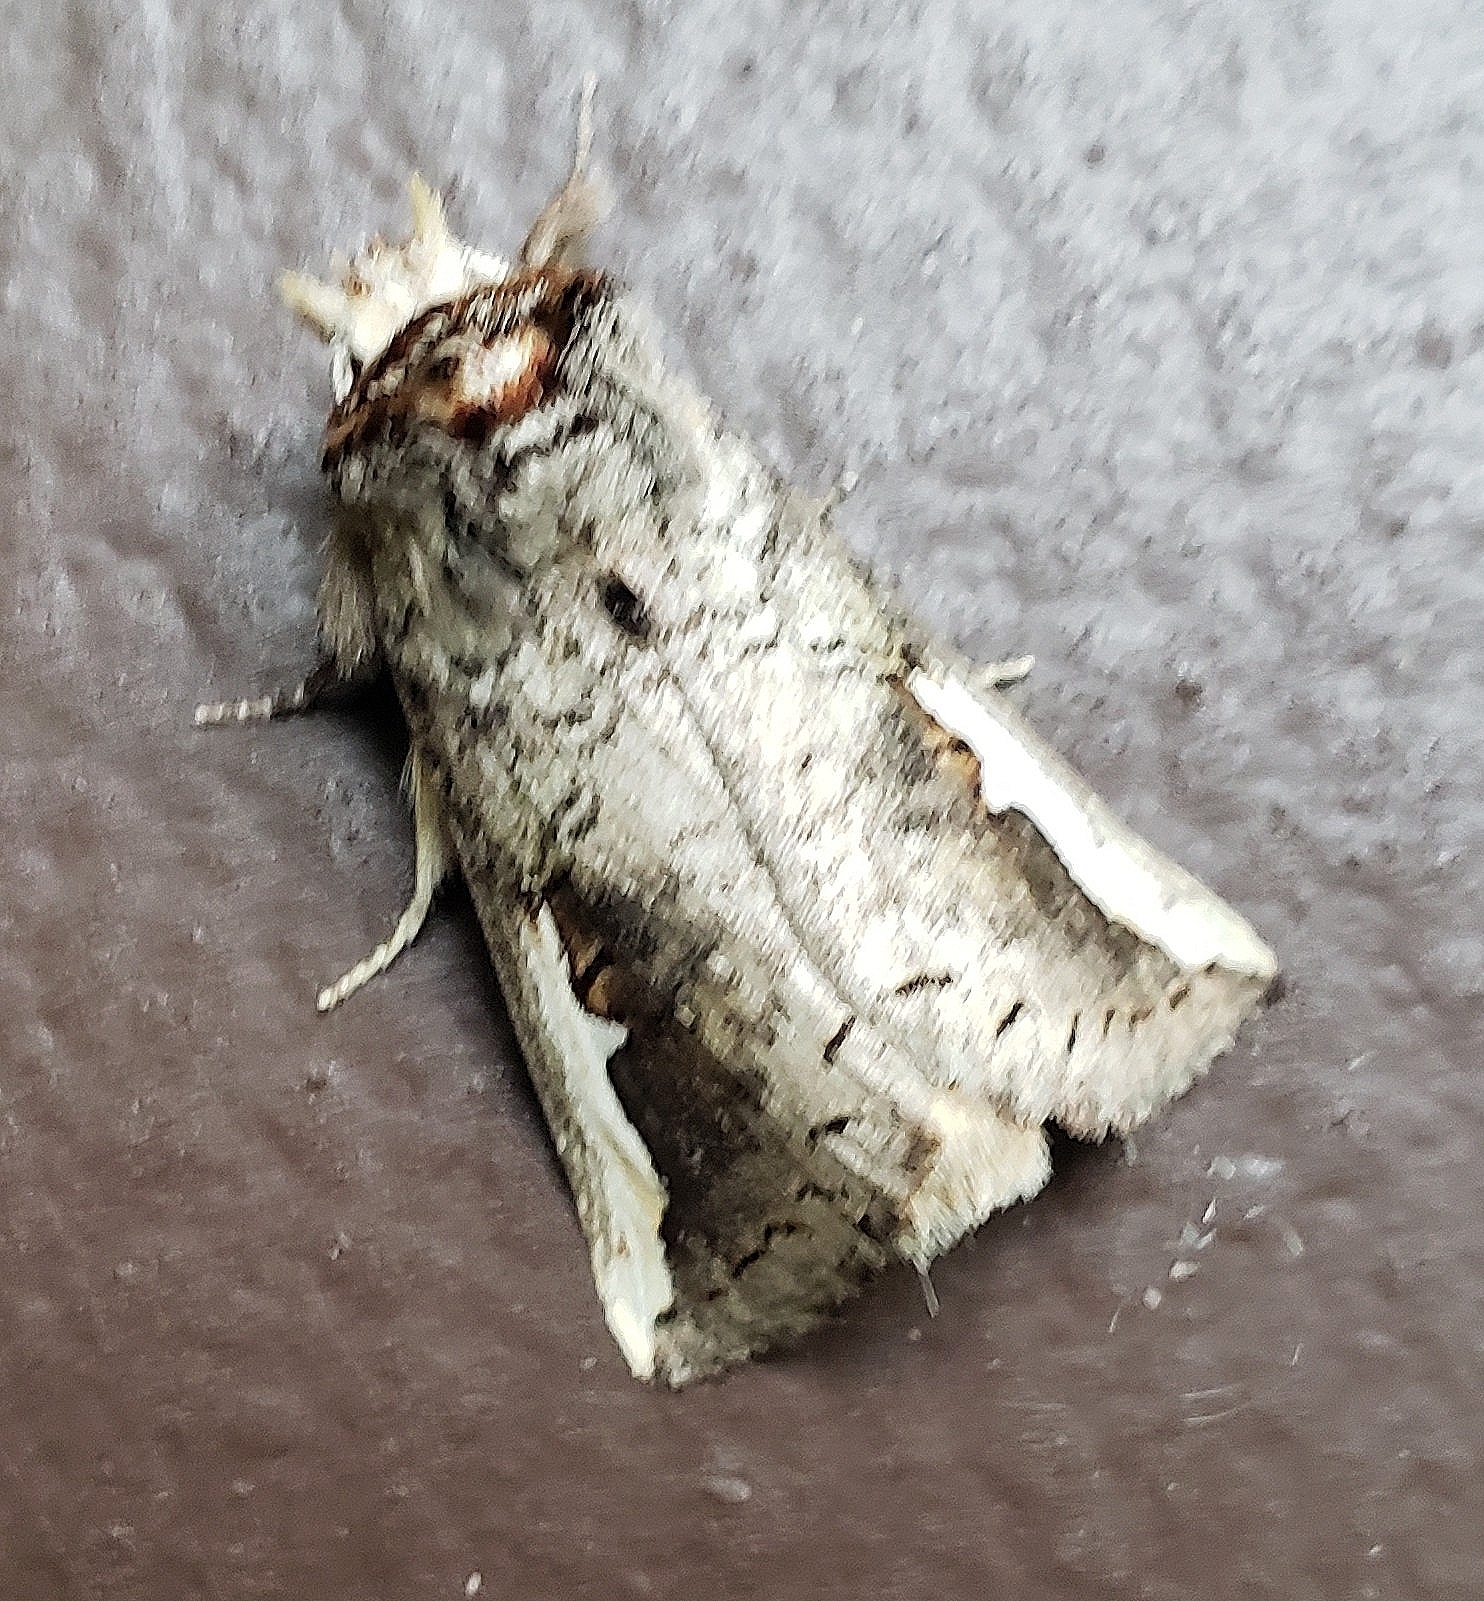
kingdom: Animalia
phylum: Arthropoda
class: Insecta
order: Lepidoptera
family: Notodontidae
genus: Symmerista
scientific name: Symmerista albifrons
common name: White-headed prominent
